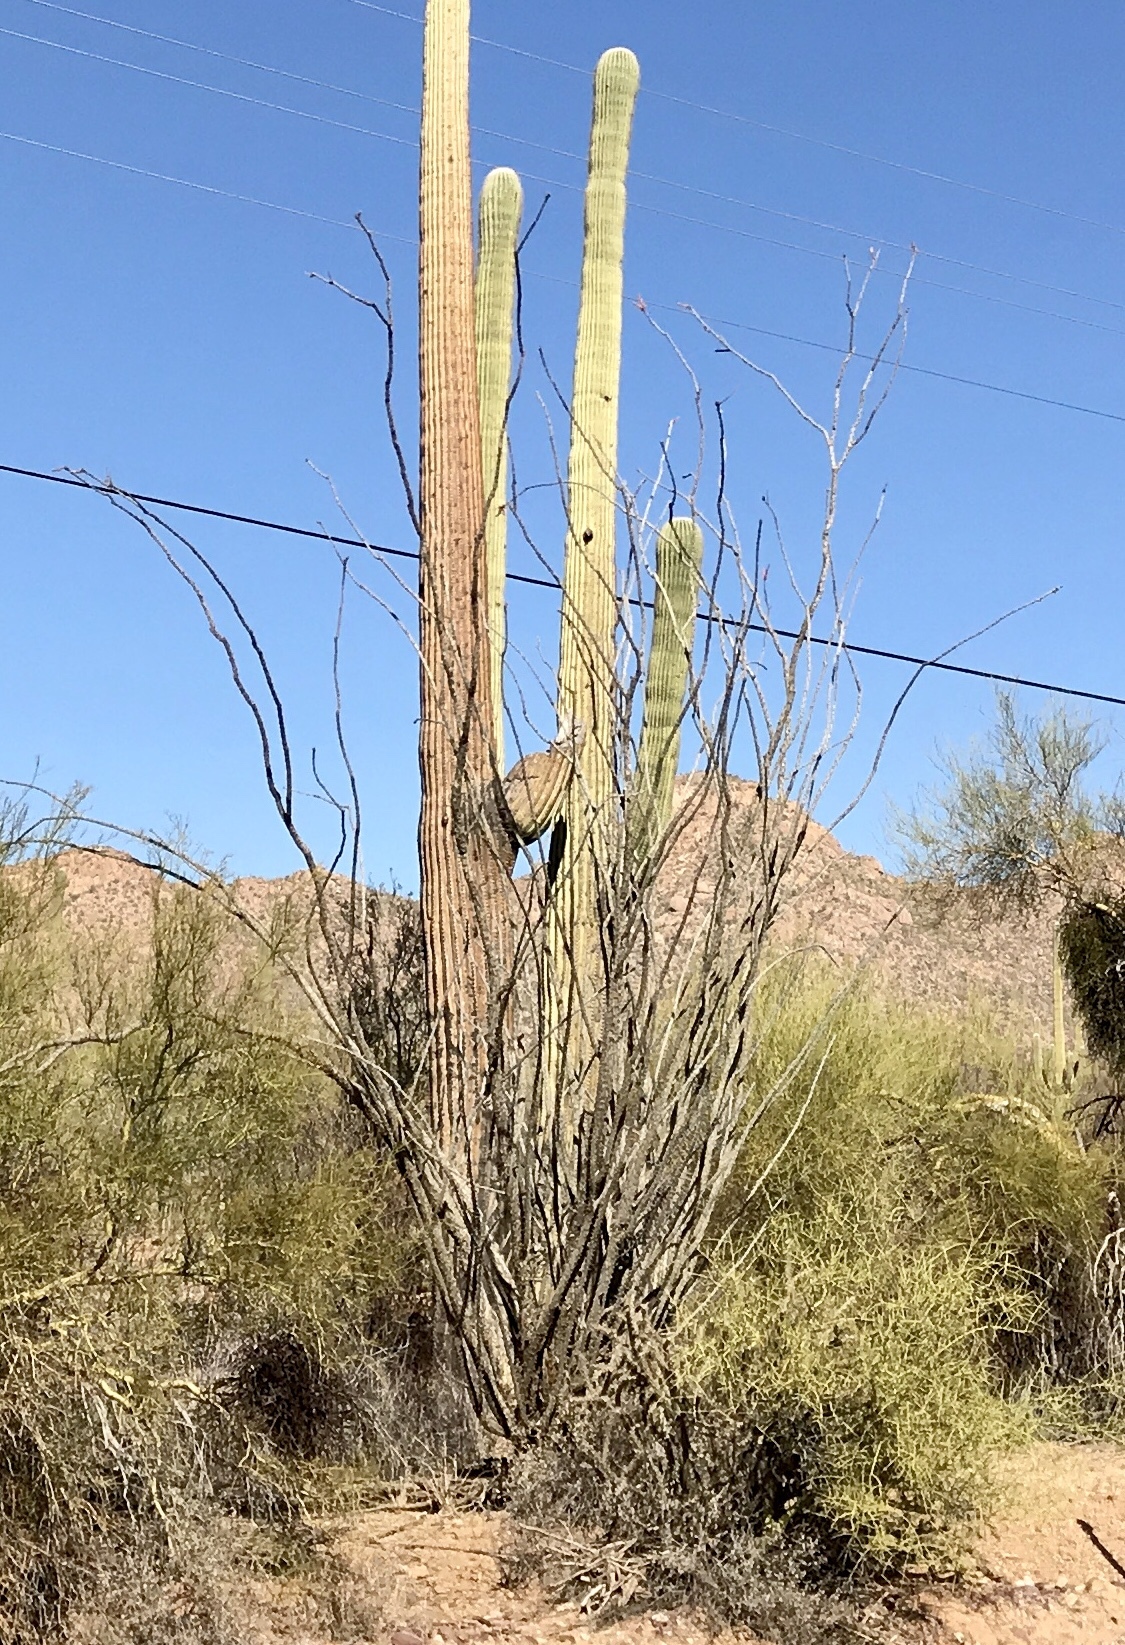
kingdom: Plantae
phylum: Tracheophyta
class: Magnoliopsida
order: Ericales
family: Fouquieriaceae
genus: Fouquieria
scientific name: Fouquieria splendens
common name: Vine-cactus
